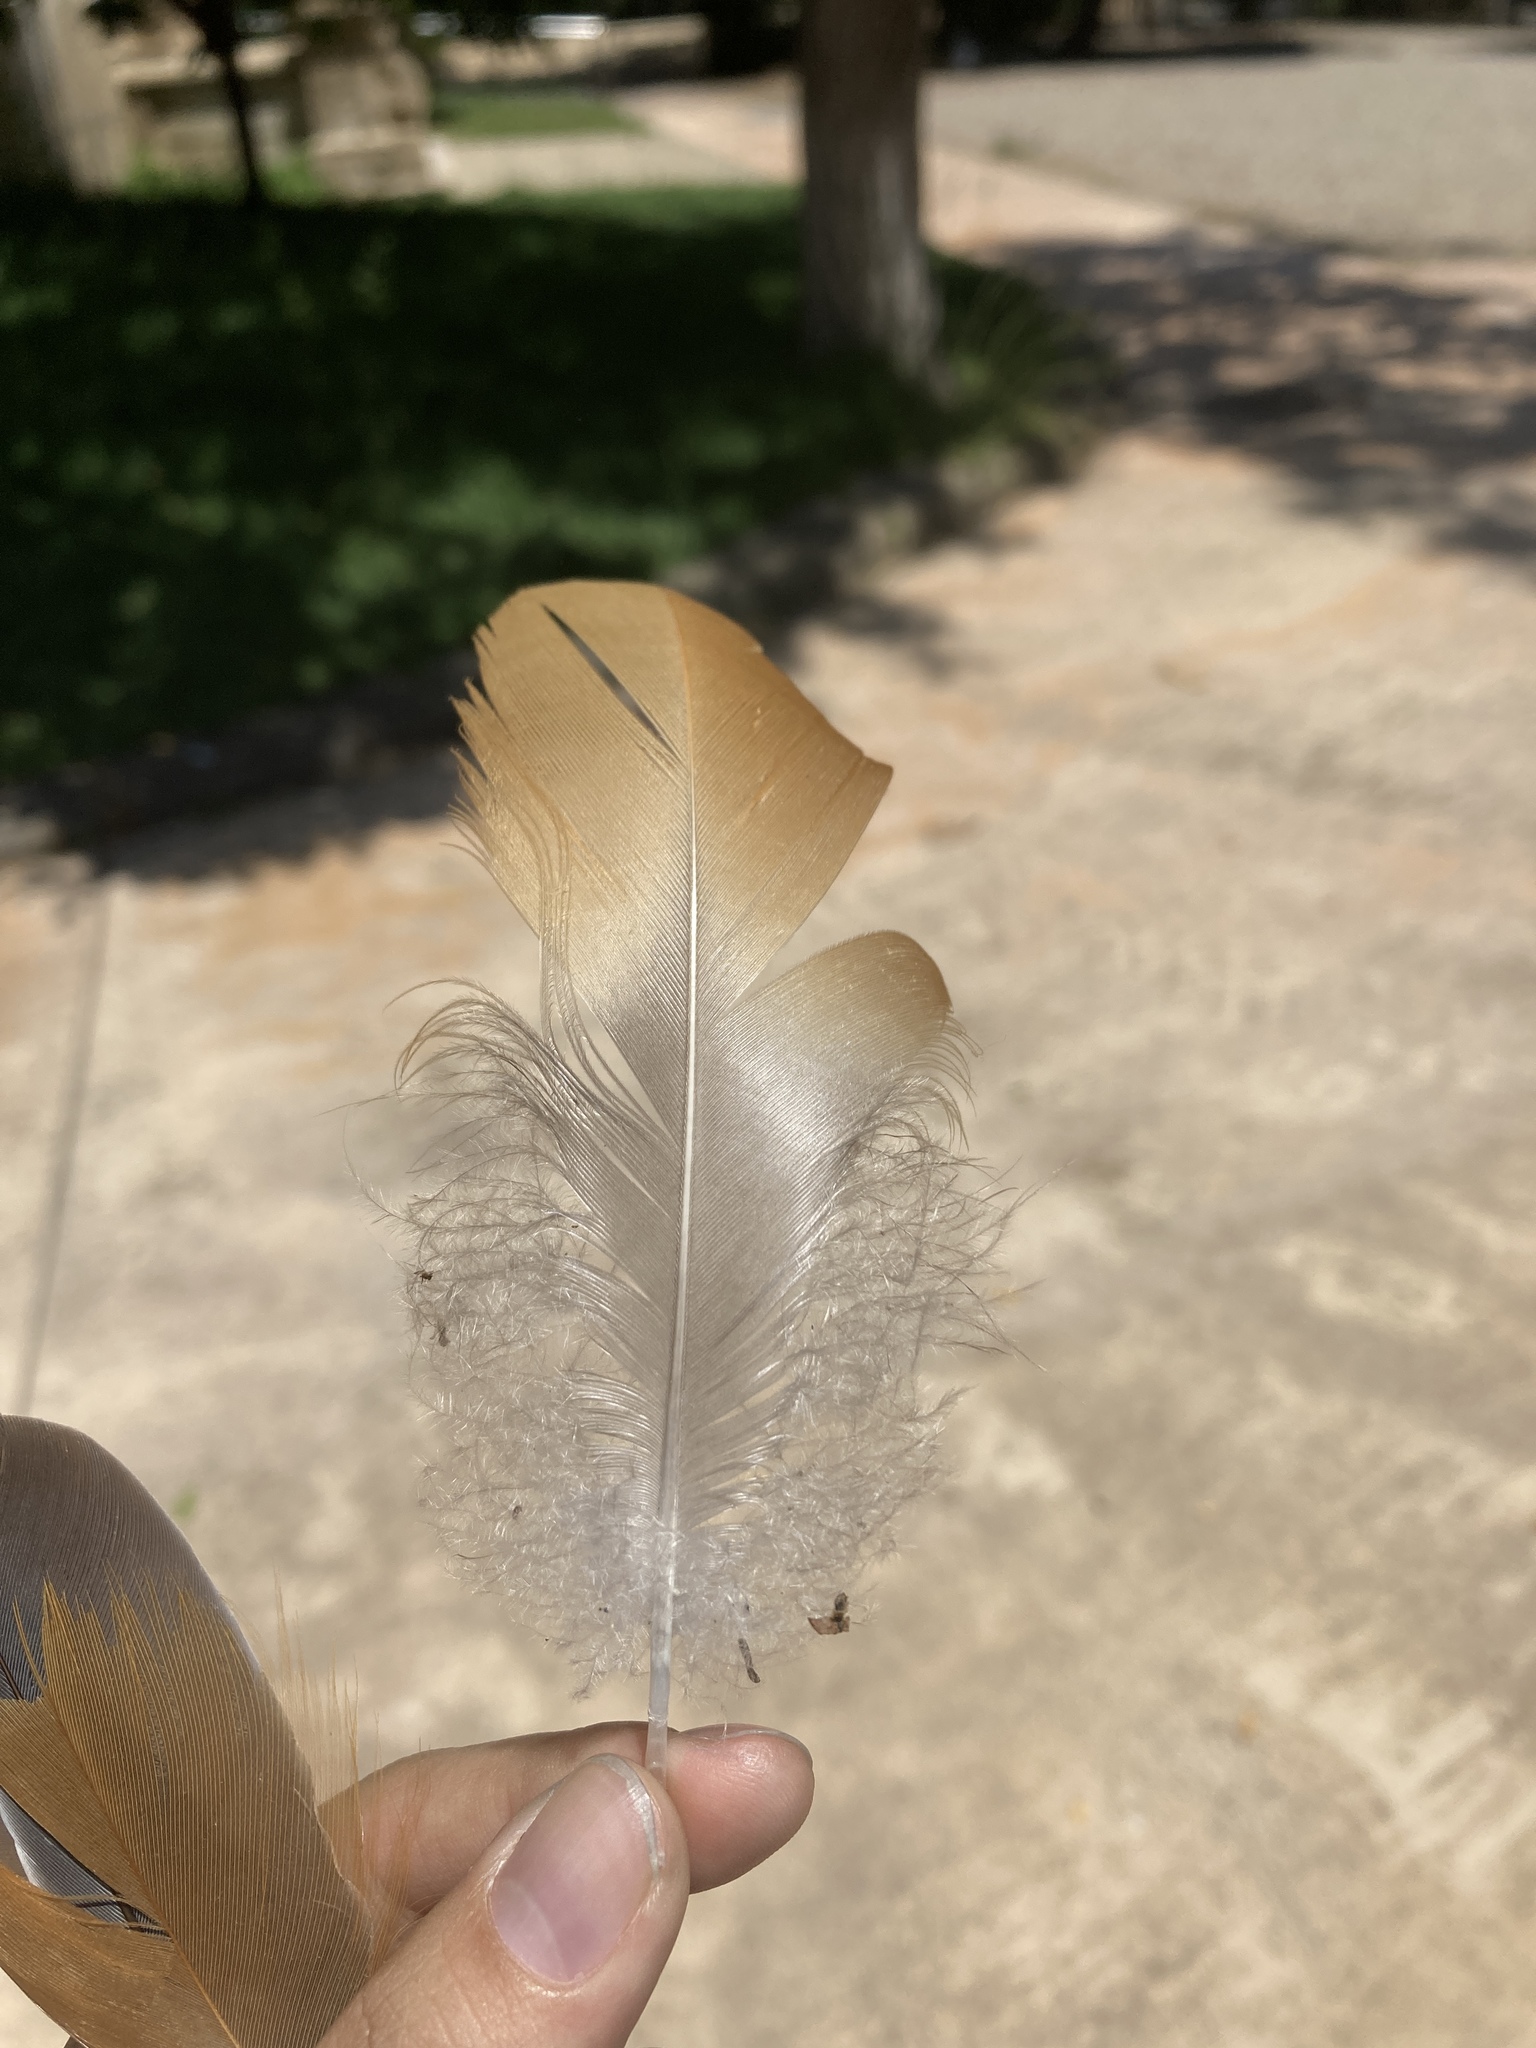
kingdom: Animalia
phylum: Chordata
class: Aves
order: Anseriformes
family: Anatidae
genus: Tadorna
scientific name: Tadorna ferruginea
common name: Ruddy shelduck
